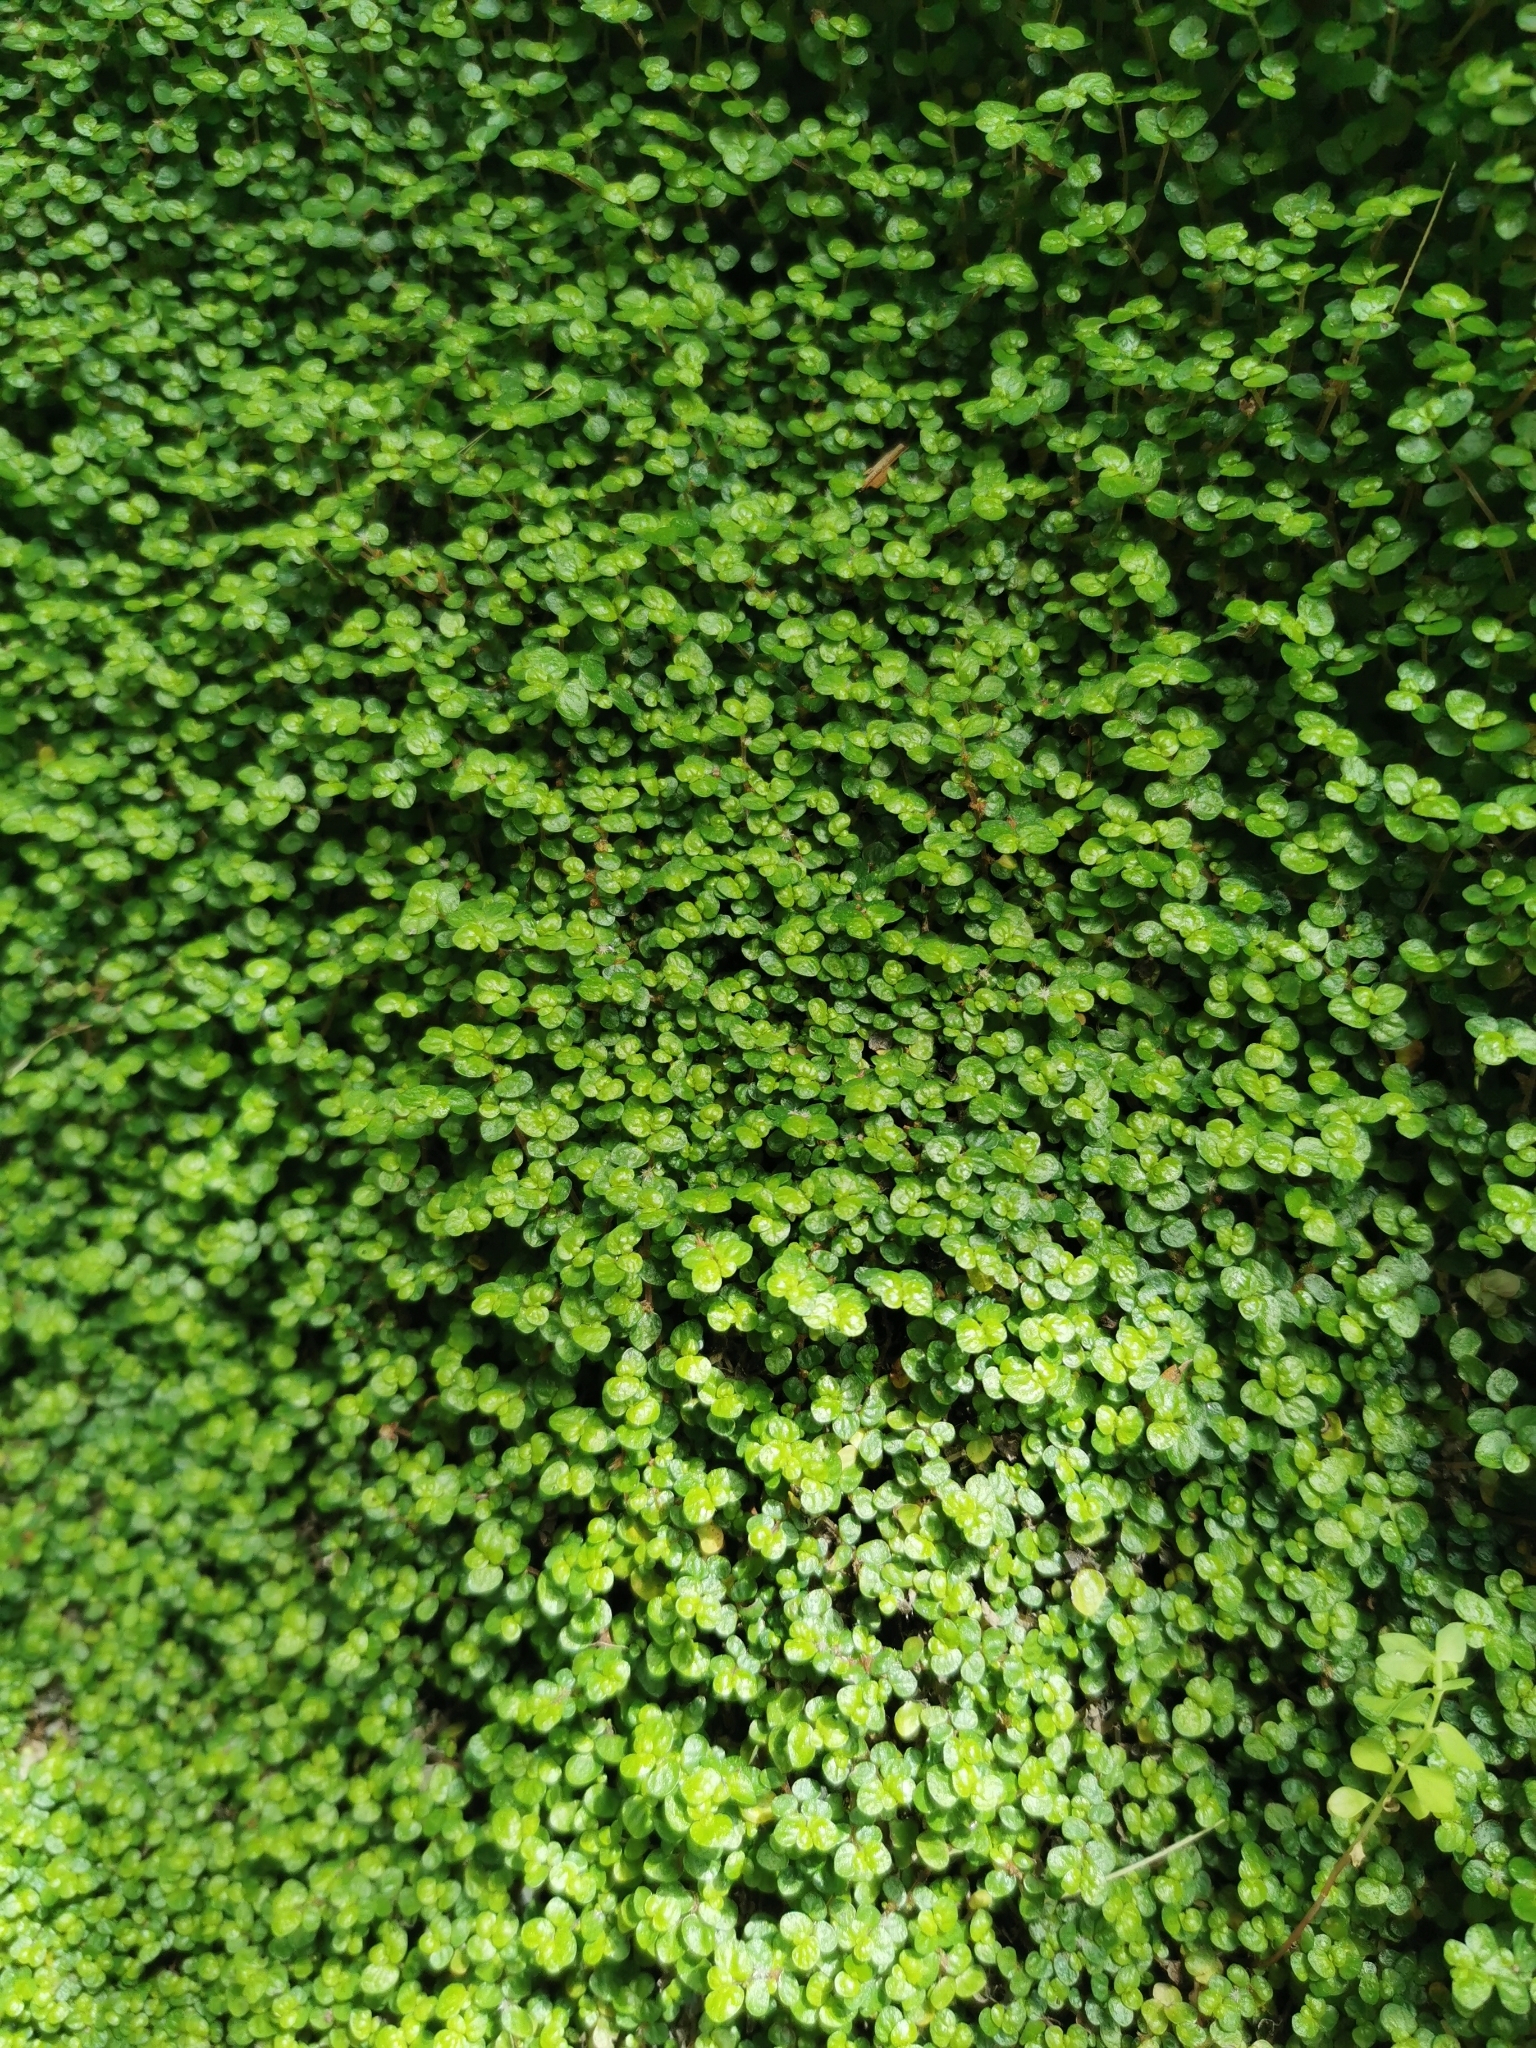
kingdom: Plantae
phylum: Tracheophyta
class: Magnoliopsida
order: Rosales
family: Urticaceae
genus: Soleirolia
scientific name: Soleirolia soleirolii
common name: Mind-your-own-business
